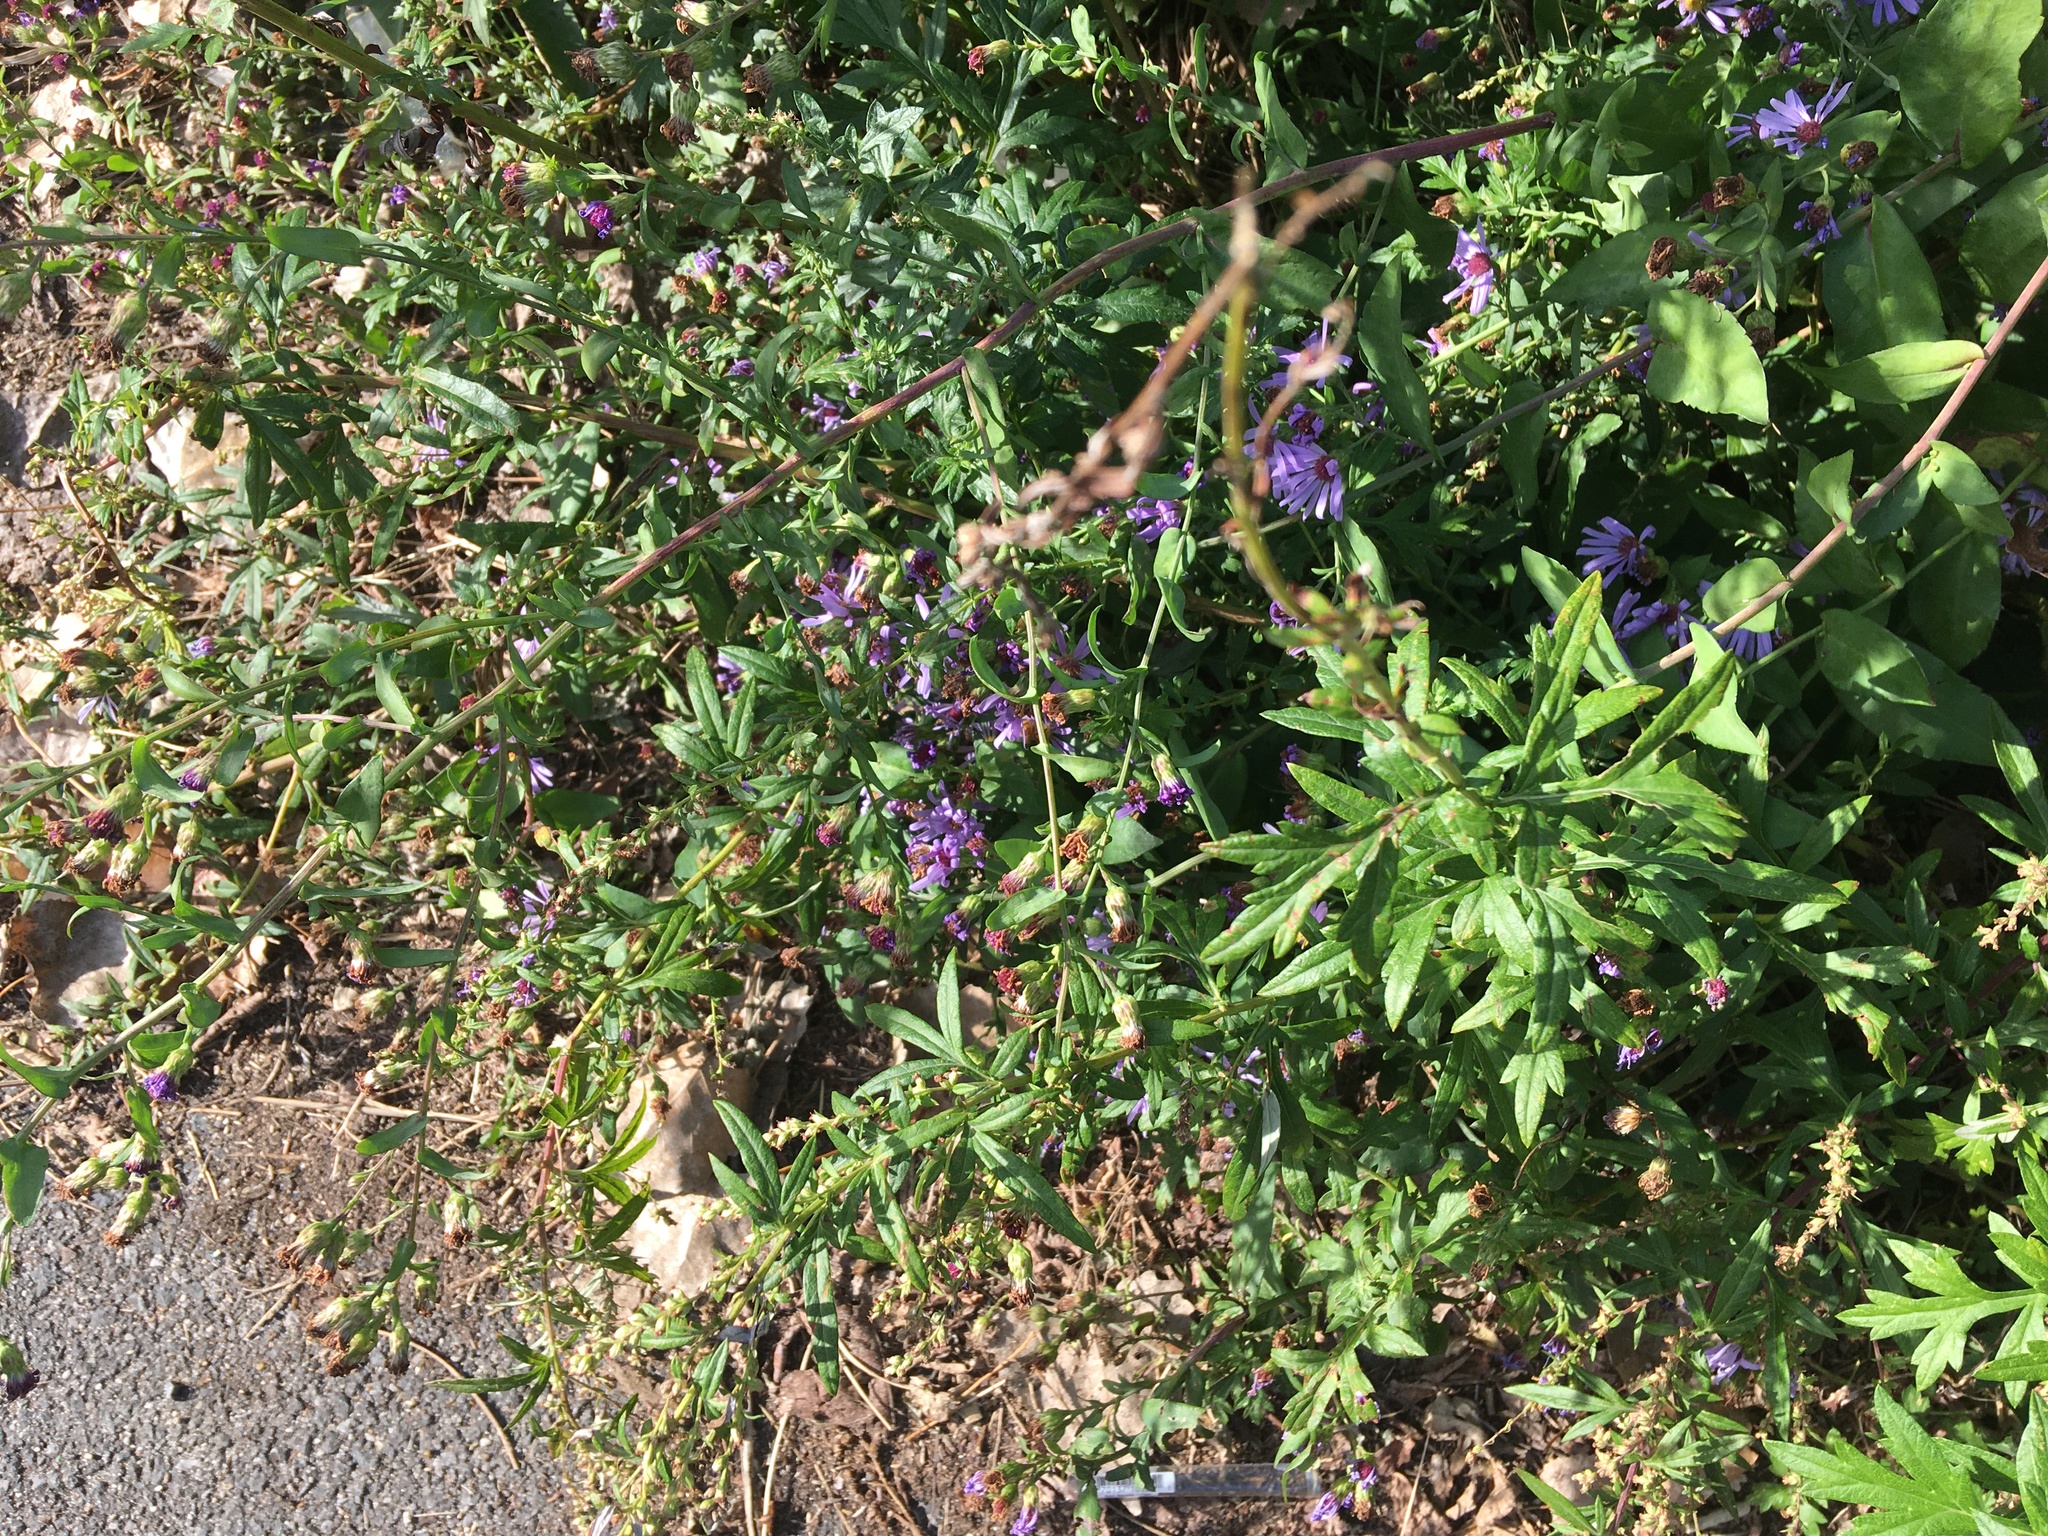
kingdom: Plantae
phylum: Tracheophyta
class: Magnoliopsida
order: Asterales
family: Asteraceae
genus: Artemisia
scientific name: Artemisia vulgaris
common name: Mugwort
